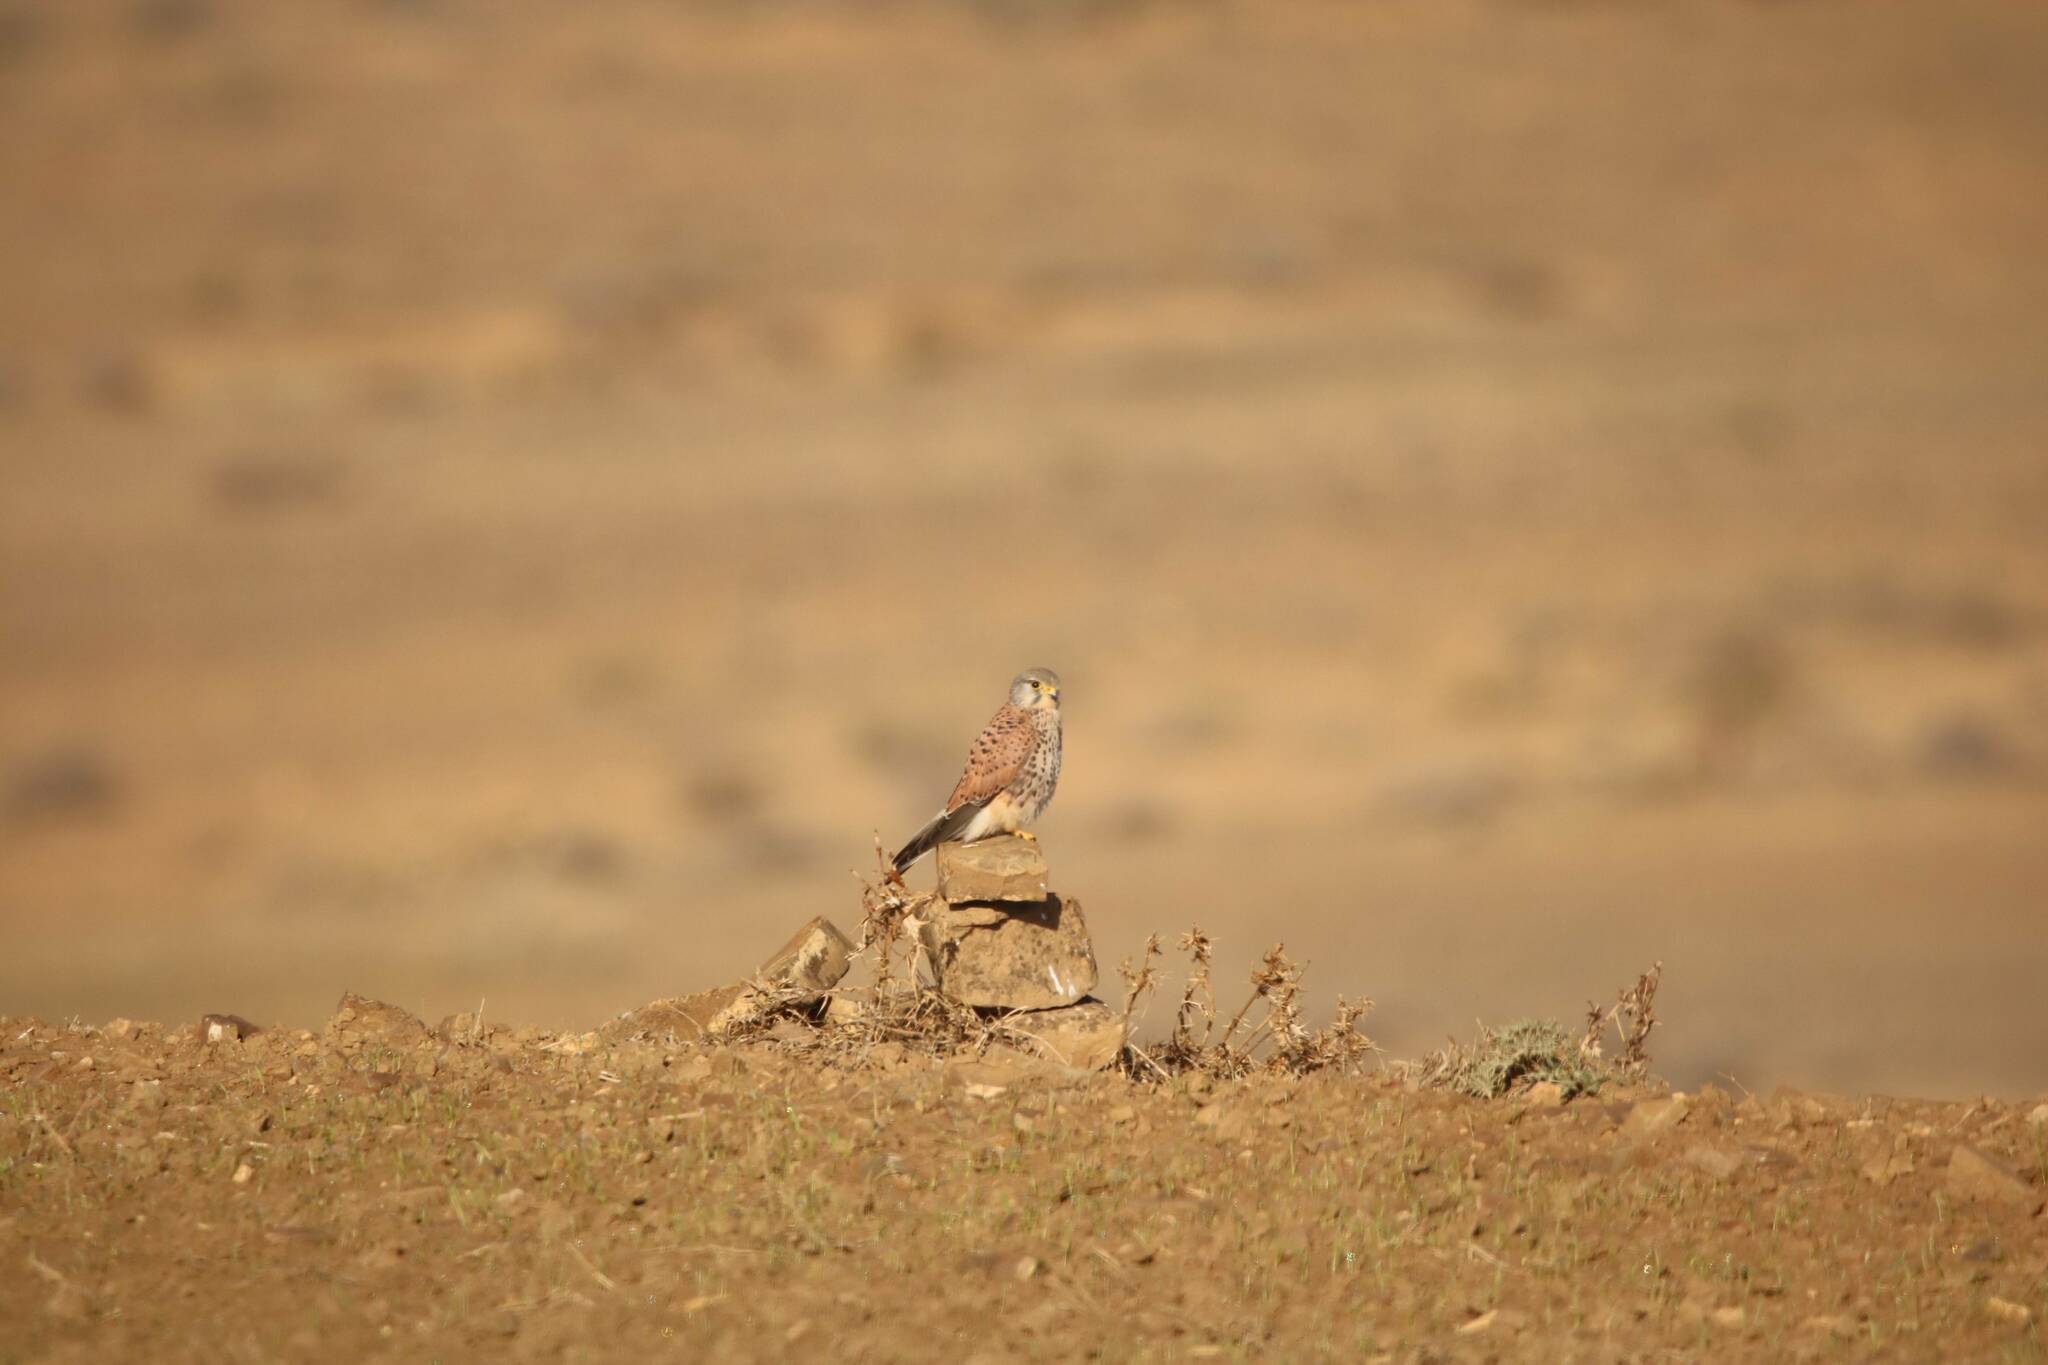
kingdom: Animalia
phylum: Chordata
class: Aves
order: Falconiformes
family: Falconidae
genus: Falco
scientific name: Falco tinnunculus
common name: Common kestrel
